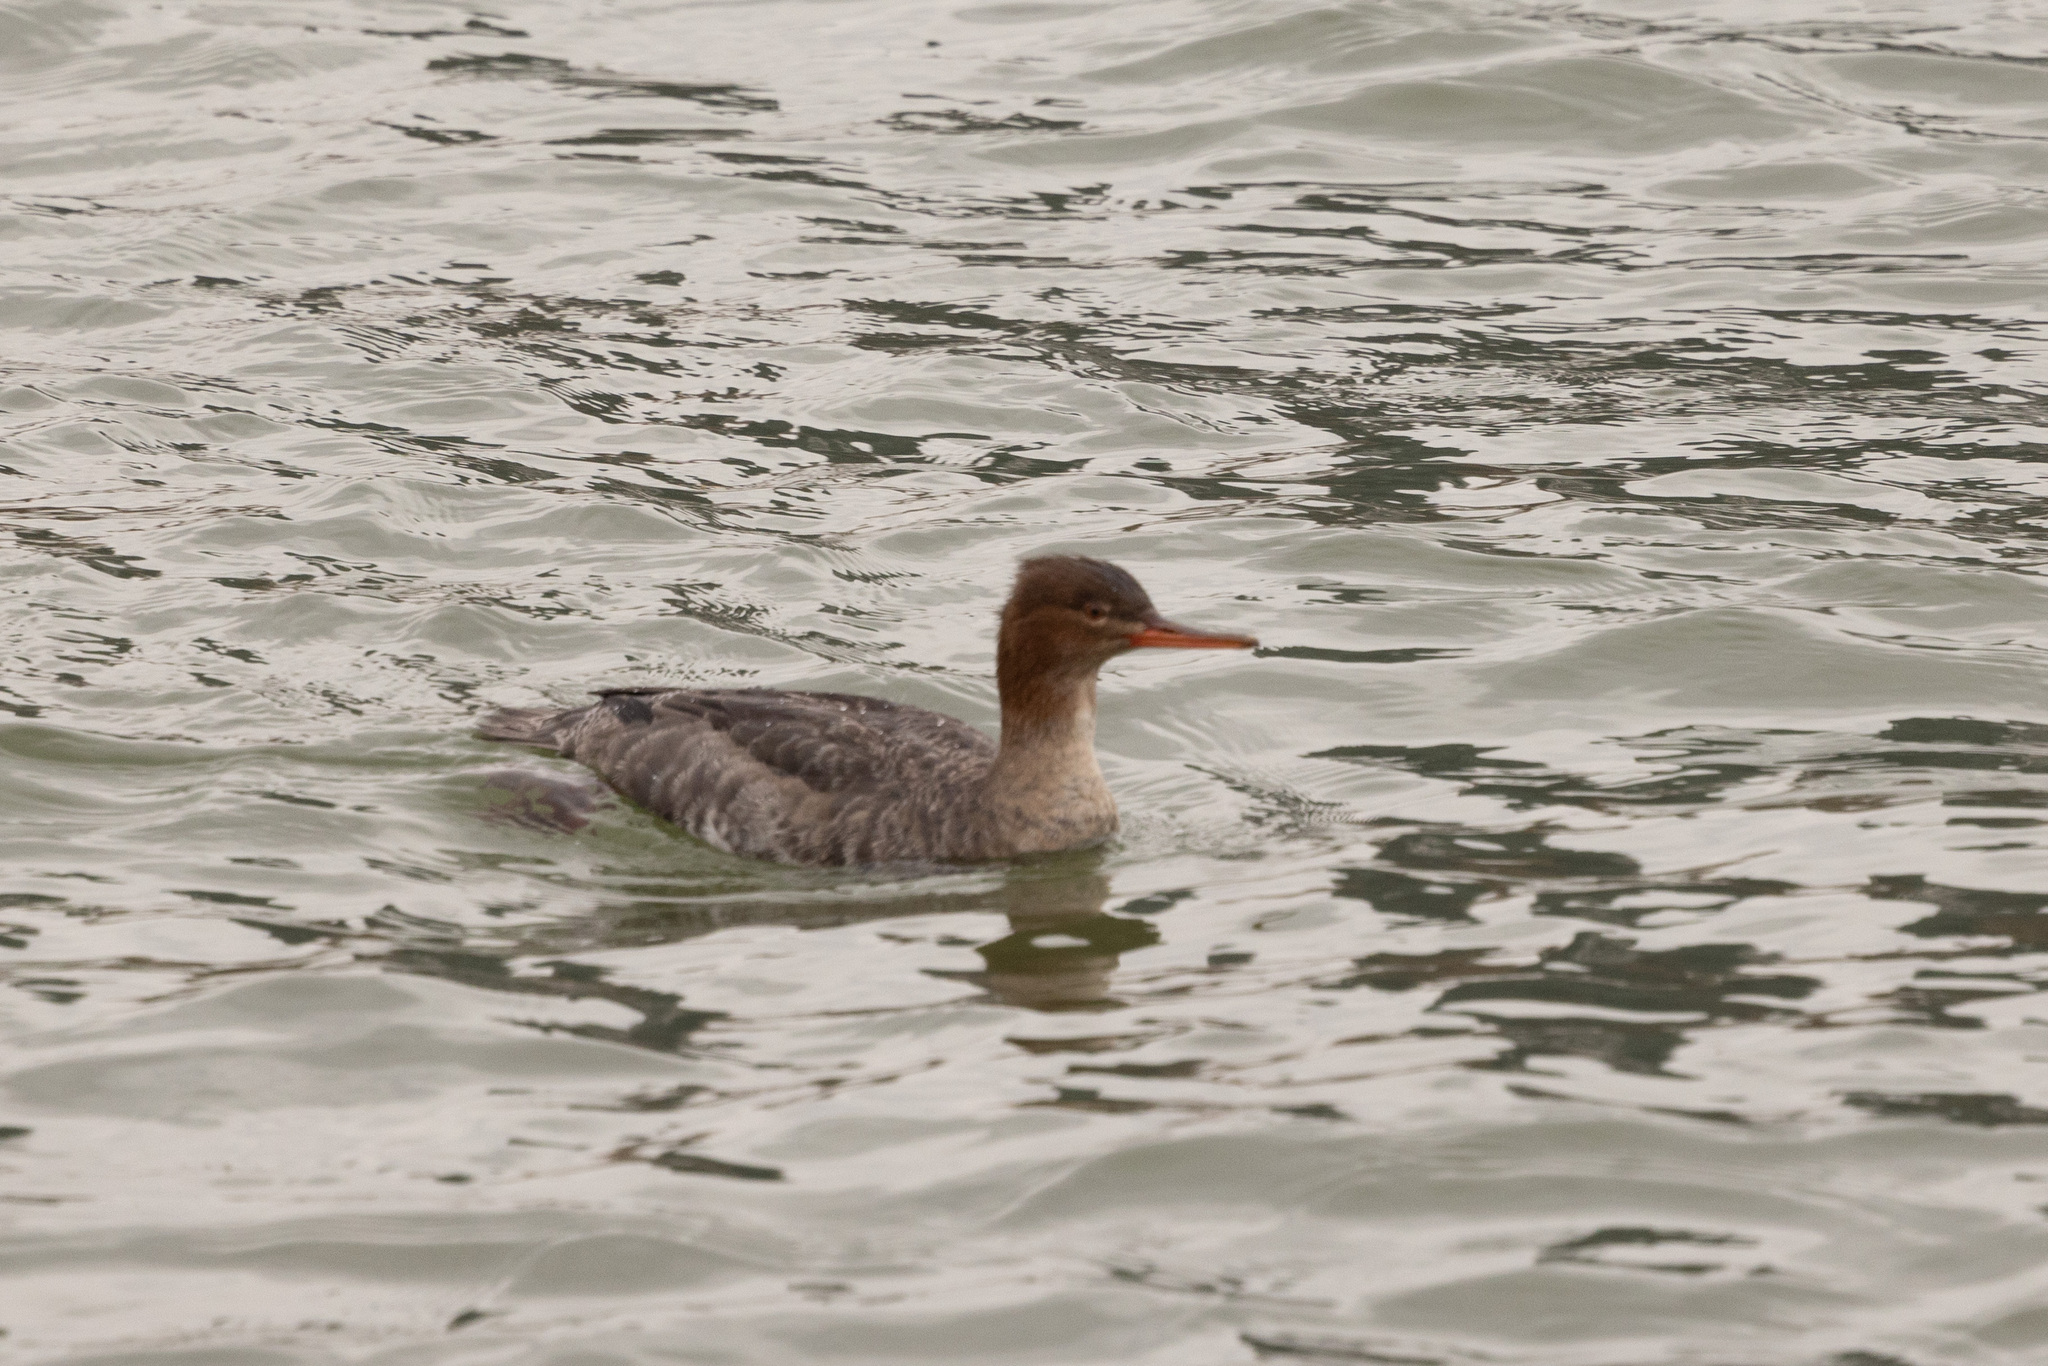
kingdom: Animalia
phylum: Chordata
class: Aves
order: Anseriformes
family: Anatidae
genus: Mergus
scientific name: Mergus serrator
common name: Red-breasted merganser
